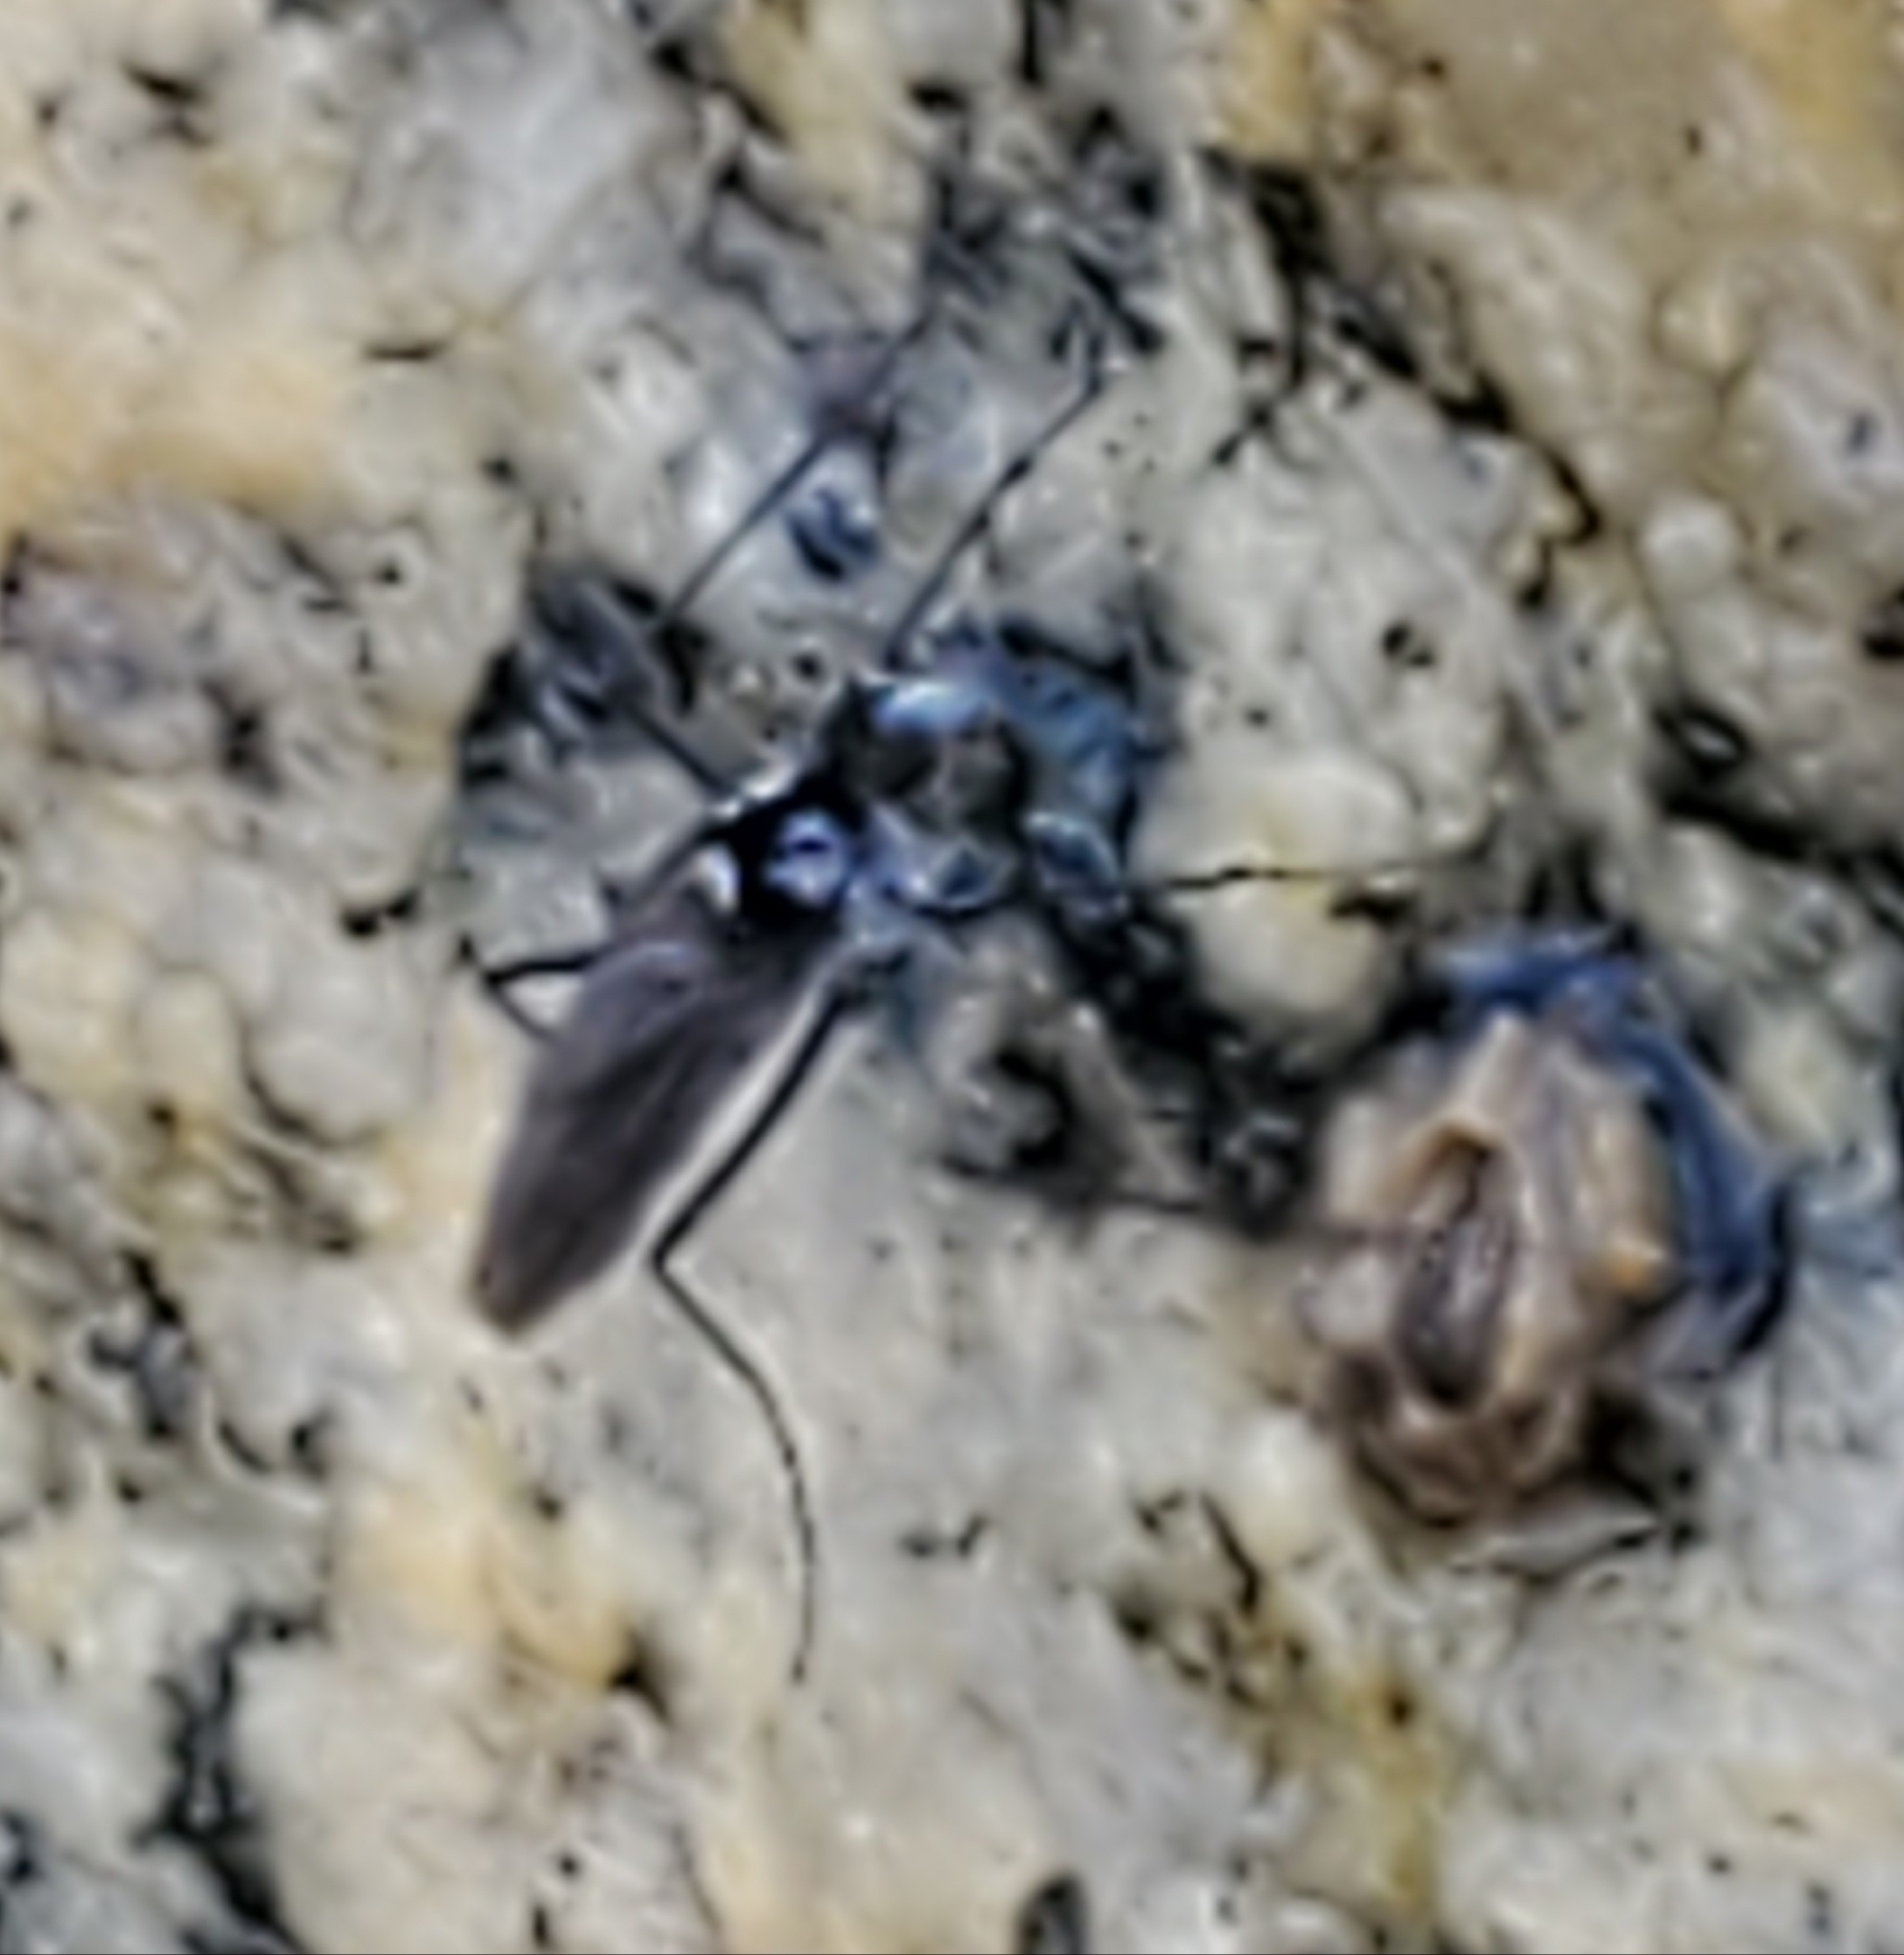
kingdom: Animalia
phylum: Arthropoda
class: Insecta
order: Diptera
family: Dolichopodidae
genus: Thambemyia
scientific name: Thambemyia borealis
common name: Fly
